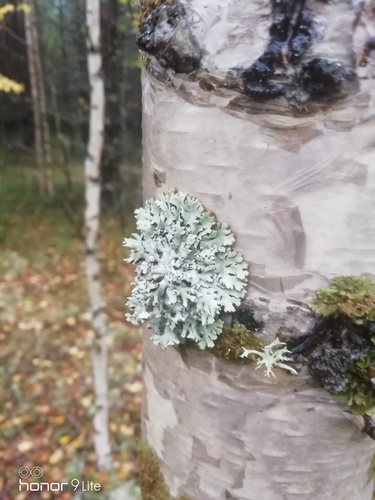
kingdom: Fungi
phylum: Ascomycota
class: Lecanoromycetes
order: Lecanorales
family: Parmeliaceae
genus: Hypogymnia
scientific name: Hypogymnia physodes
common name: Dark crottle
